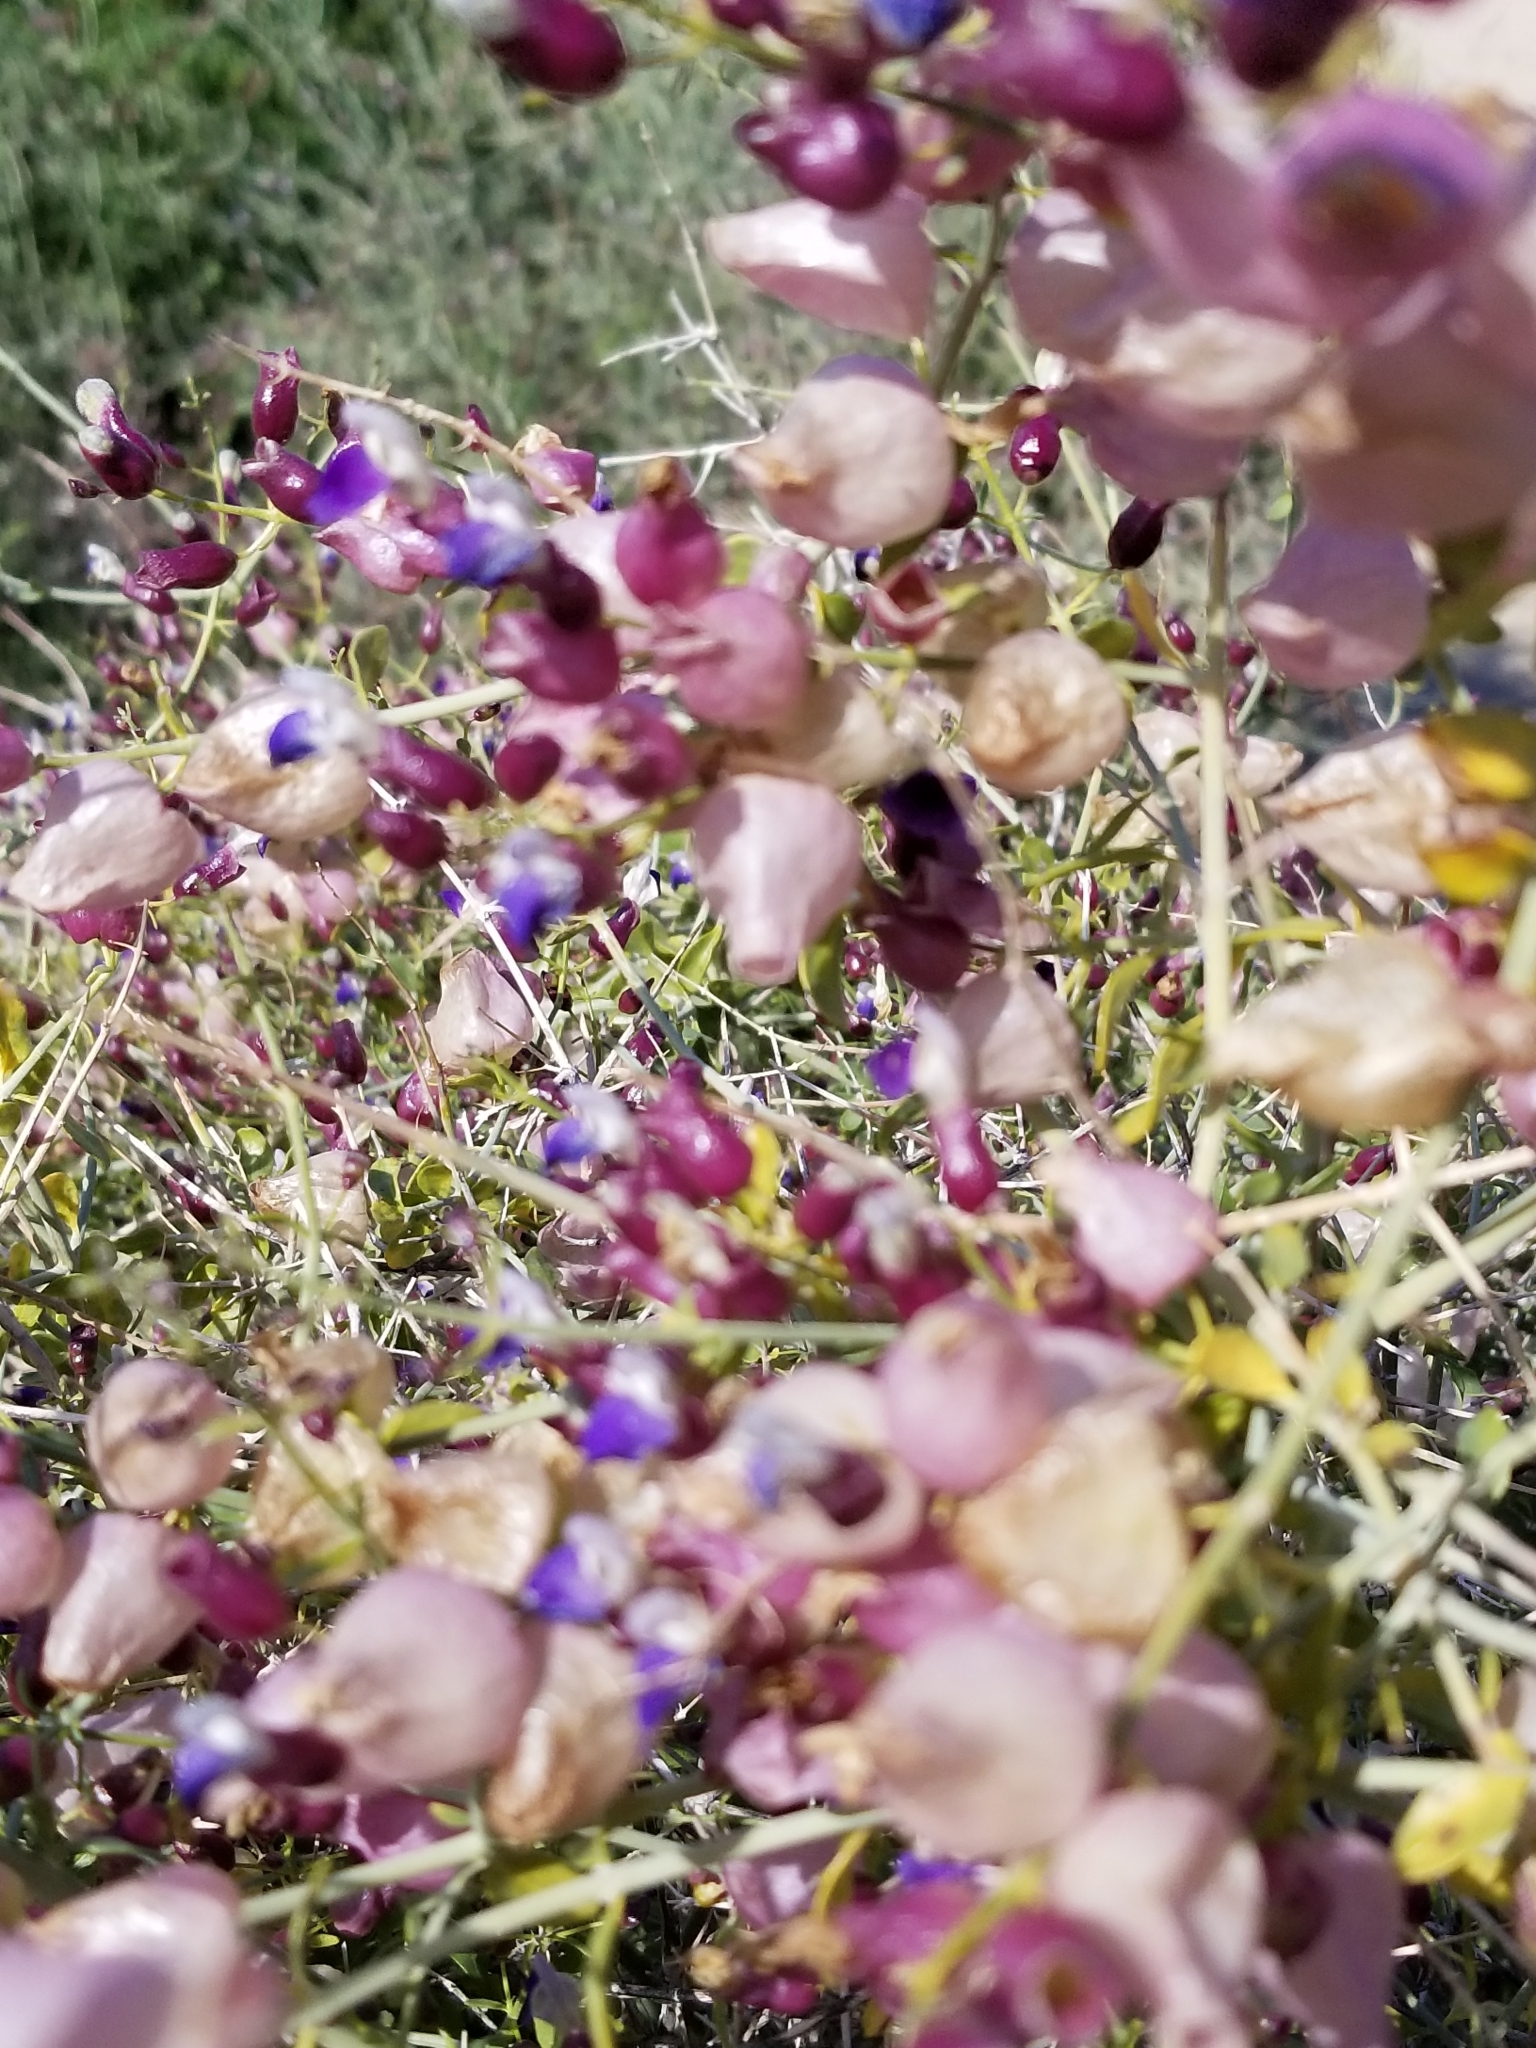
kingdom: Plantae
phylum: Tracheophyta
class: Magnoliopsida
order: Lamiales
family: Lamiaceae
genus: Scutellaria
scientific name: Scutellaria mexicana
